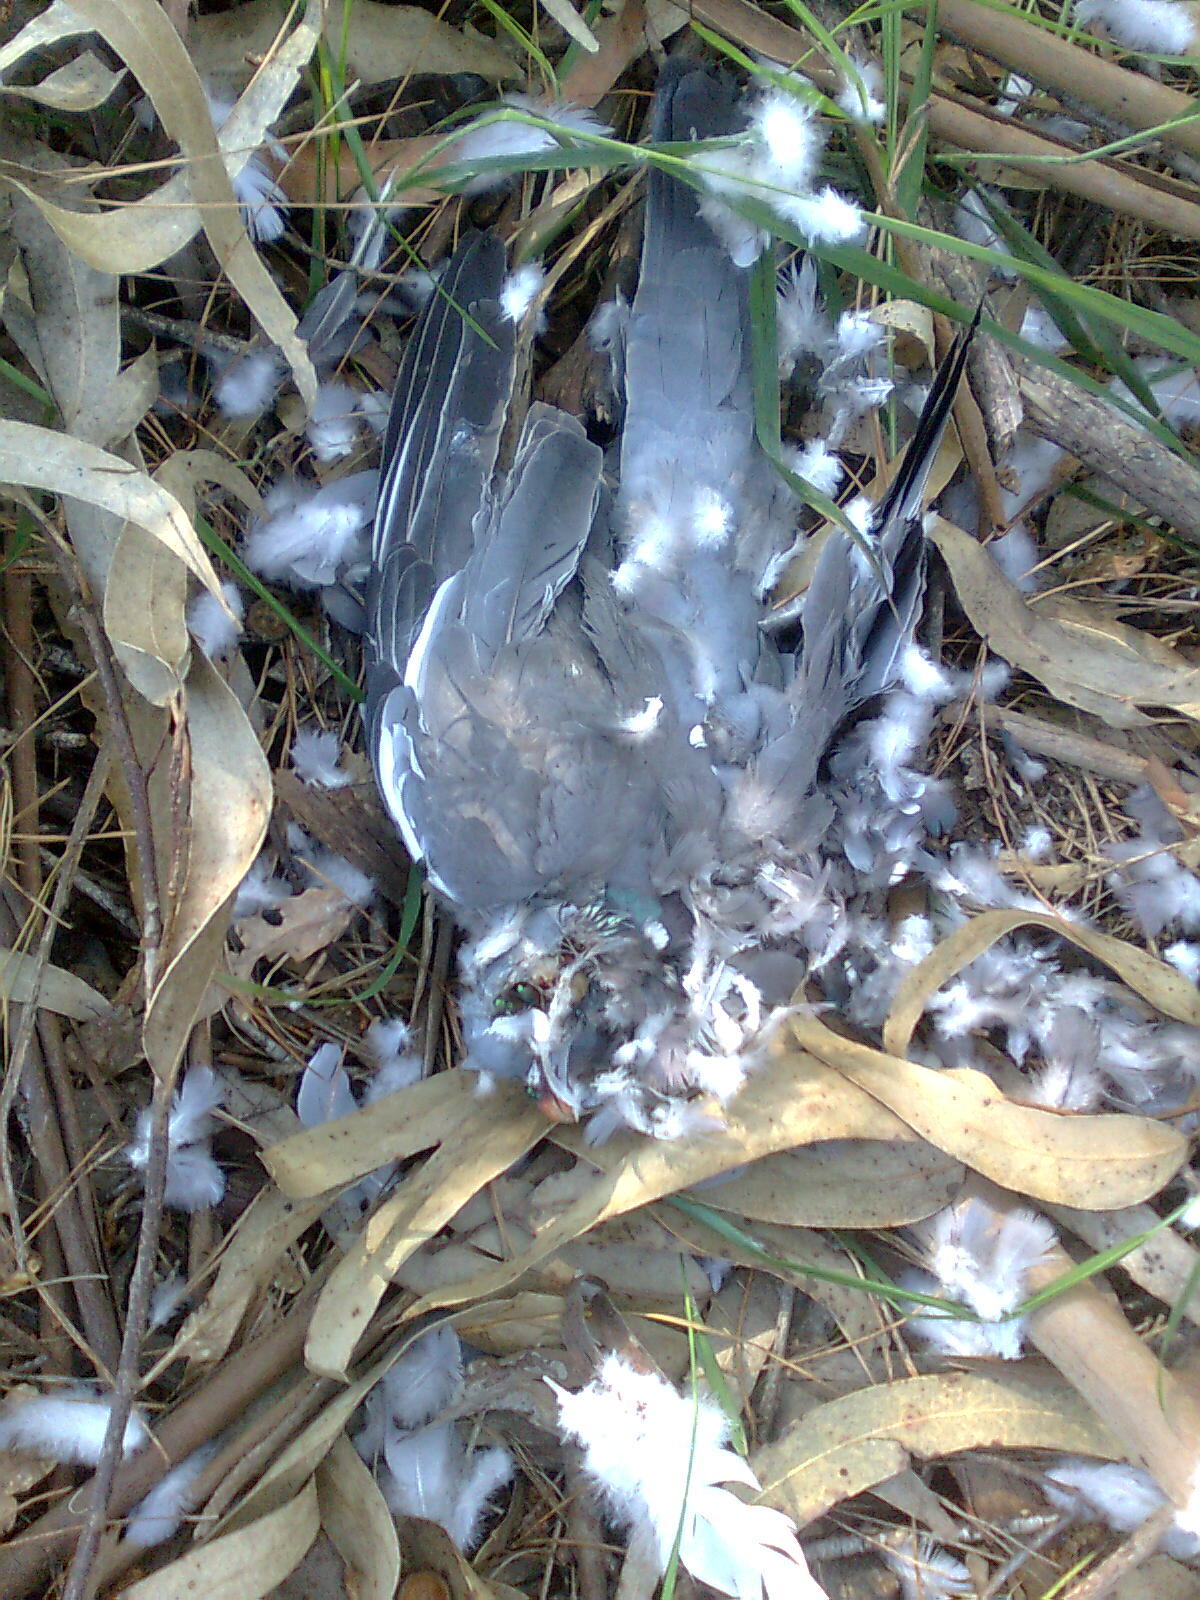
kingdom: Animalia
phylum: Chordata
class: Aves
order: Columbiformes
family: Columbidae
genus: Columba
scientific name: Columba palumbus
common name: Common wood pigeon
